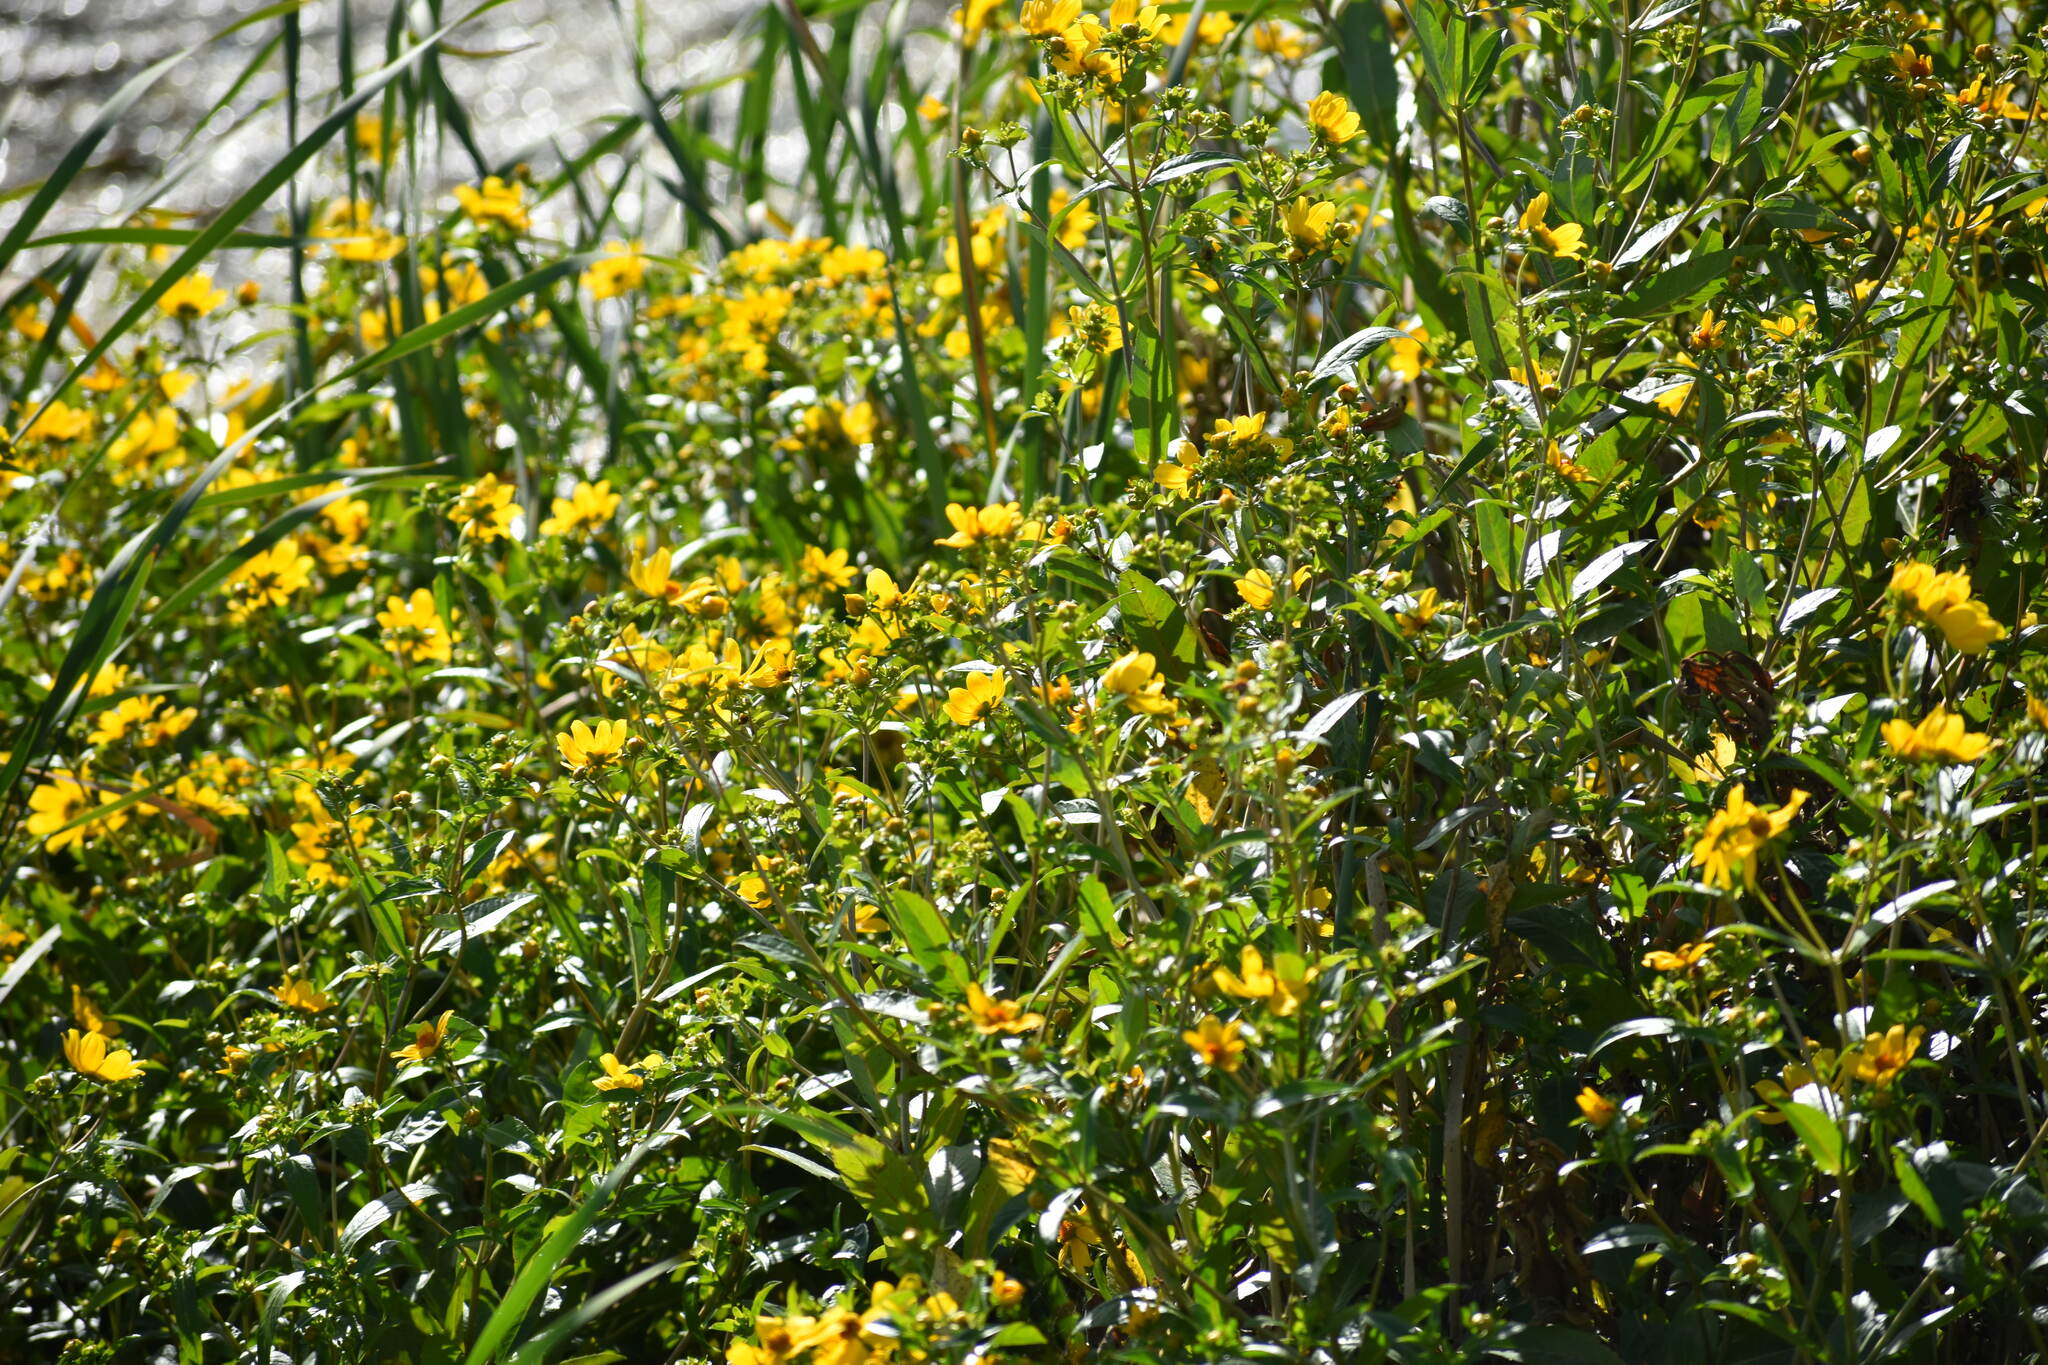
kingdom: Plantae
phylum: Tracheophyta
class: Magnoliopsida
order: Asterales
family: Asteraceae
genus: Bidens
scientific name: Bidens laevis
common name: Larger bur-marigold
